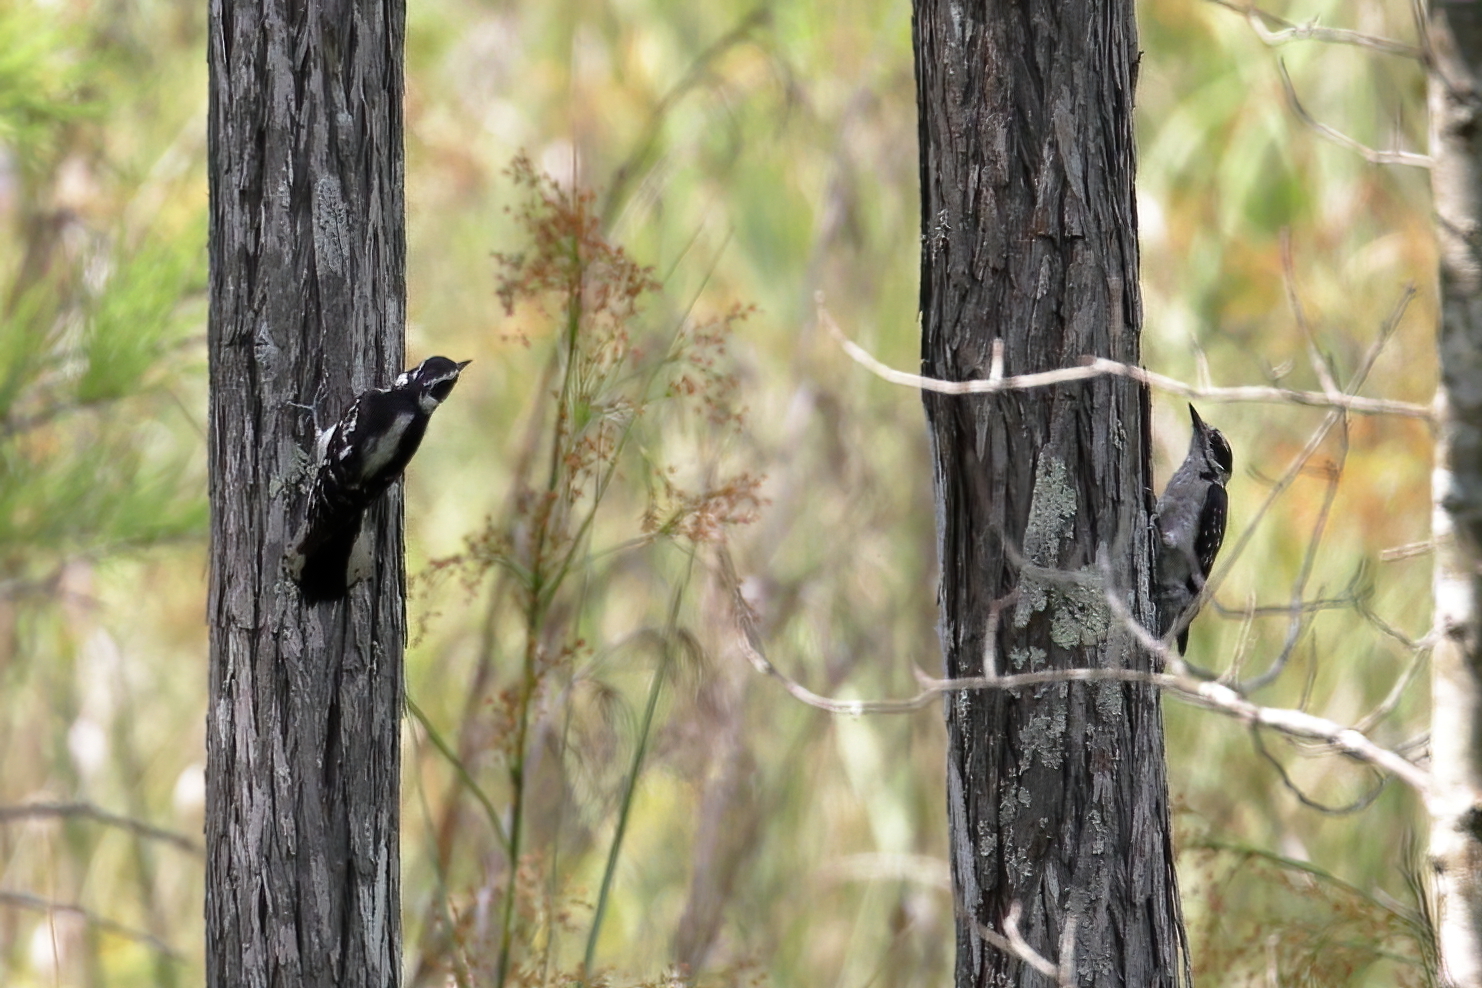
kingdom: Animalia
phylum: Chordata
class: Aves
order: Piciformes
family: Picidae
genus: Dryobates
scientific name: Dryobates pubescens
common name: Downy woodpecker
